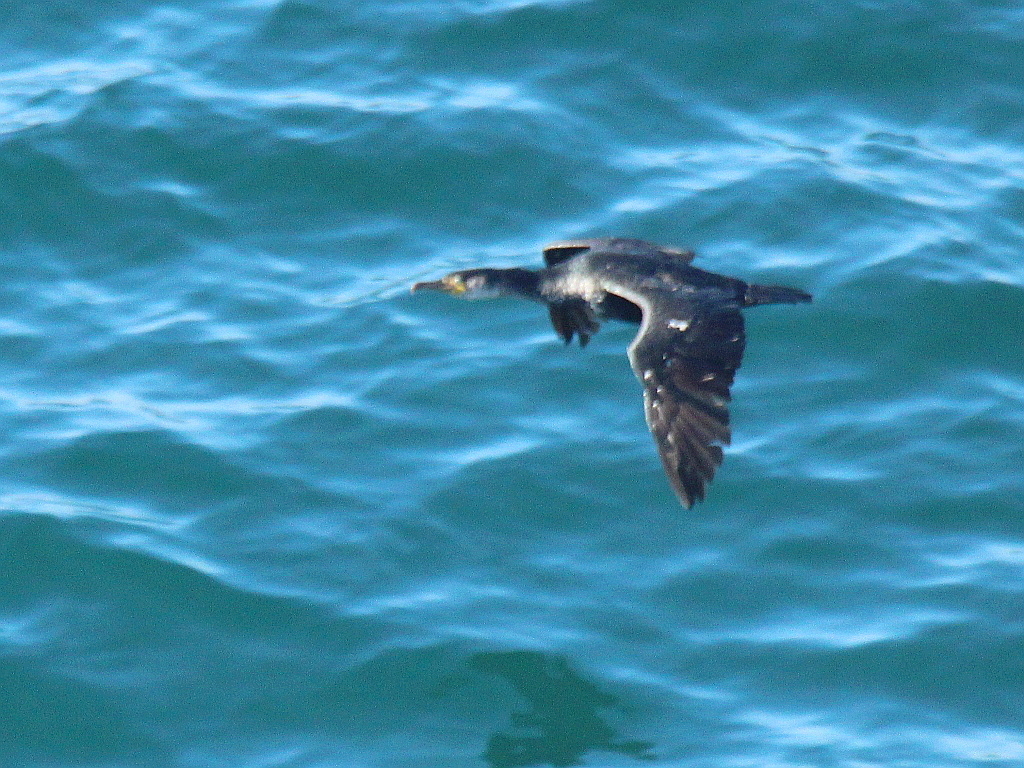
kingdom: Animalia
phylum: Chordata
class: Aves
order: Suliformes
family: Phalacrocoracidae
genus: Phalacrocorax
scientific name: Phalacrocorax capillatus
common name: Japanese cormorant
